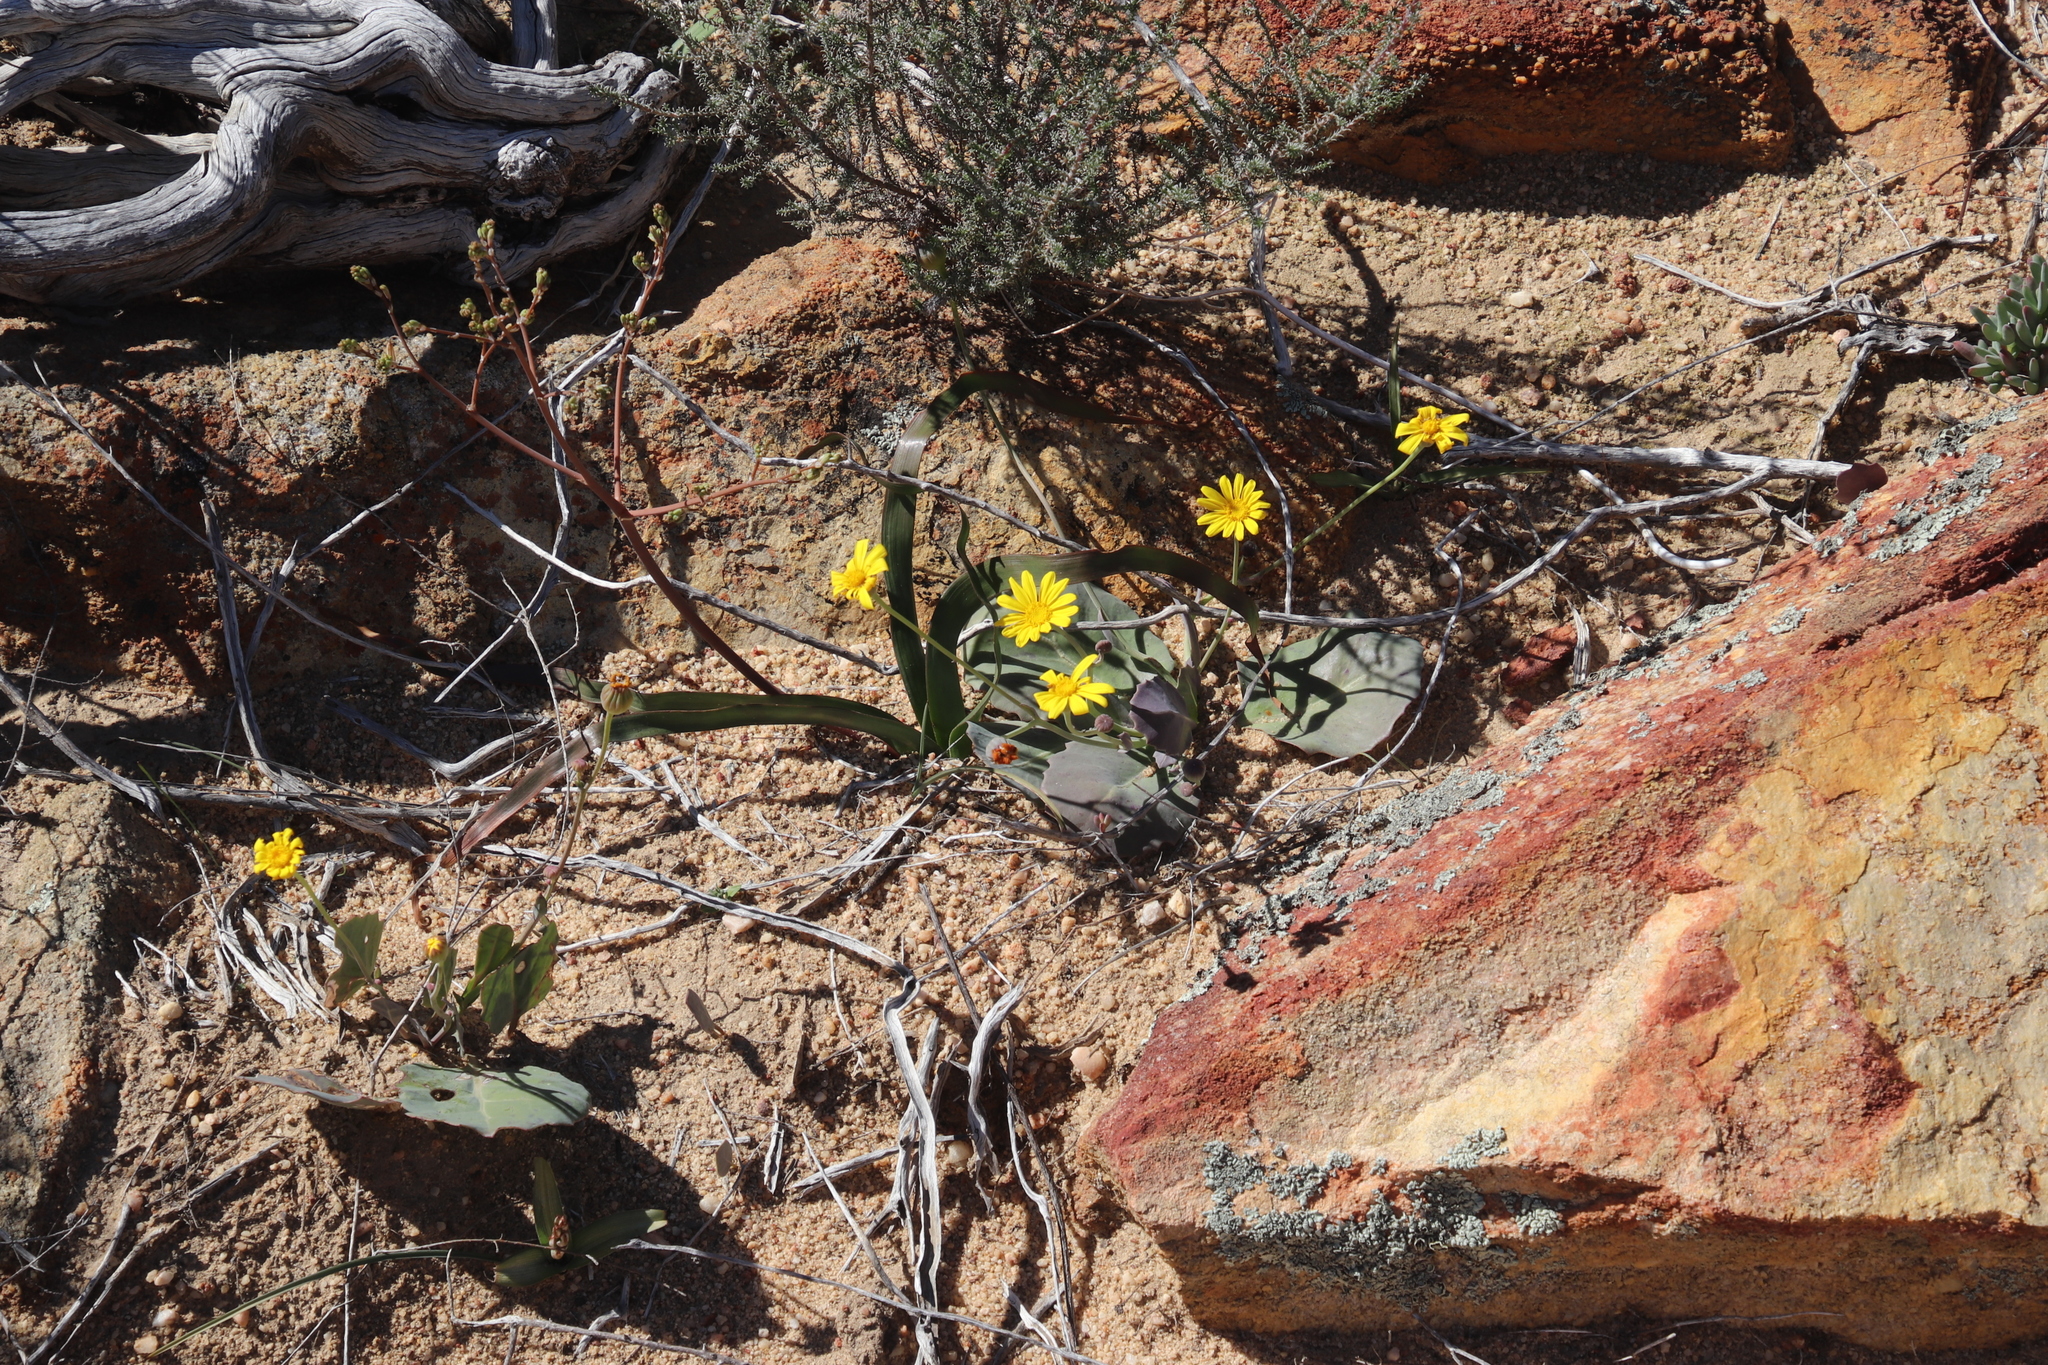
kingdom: Plantae
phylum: Tracheophyta
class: Magnoliopsida
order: Asterales
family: Asteraceae
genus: Othonna
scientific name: Othonna petiolaris
